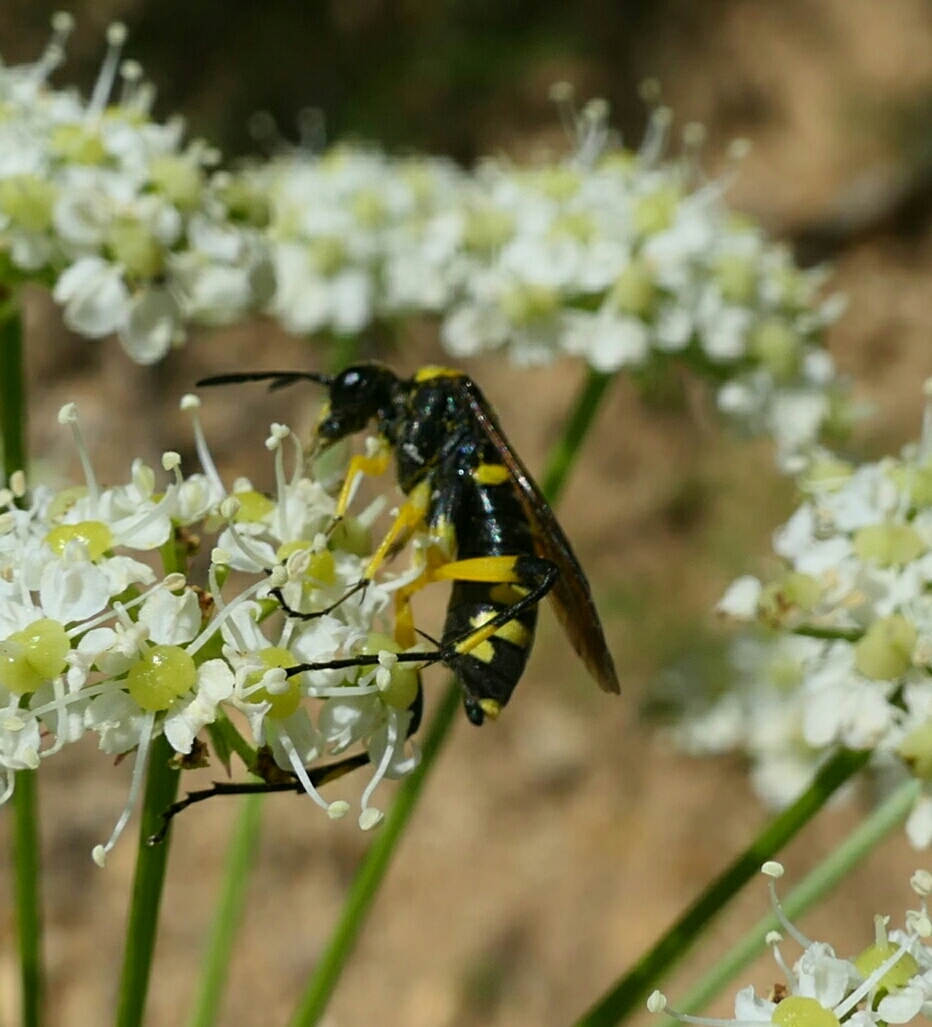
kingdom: Animalia
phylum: Arthropoda
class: Insecta
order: Hymenoptera
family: Tenthredinidae
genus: Macrophya
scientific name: Macrophya montana
